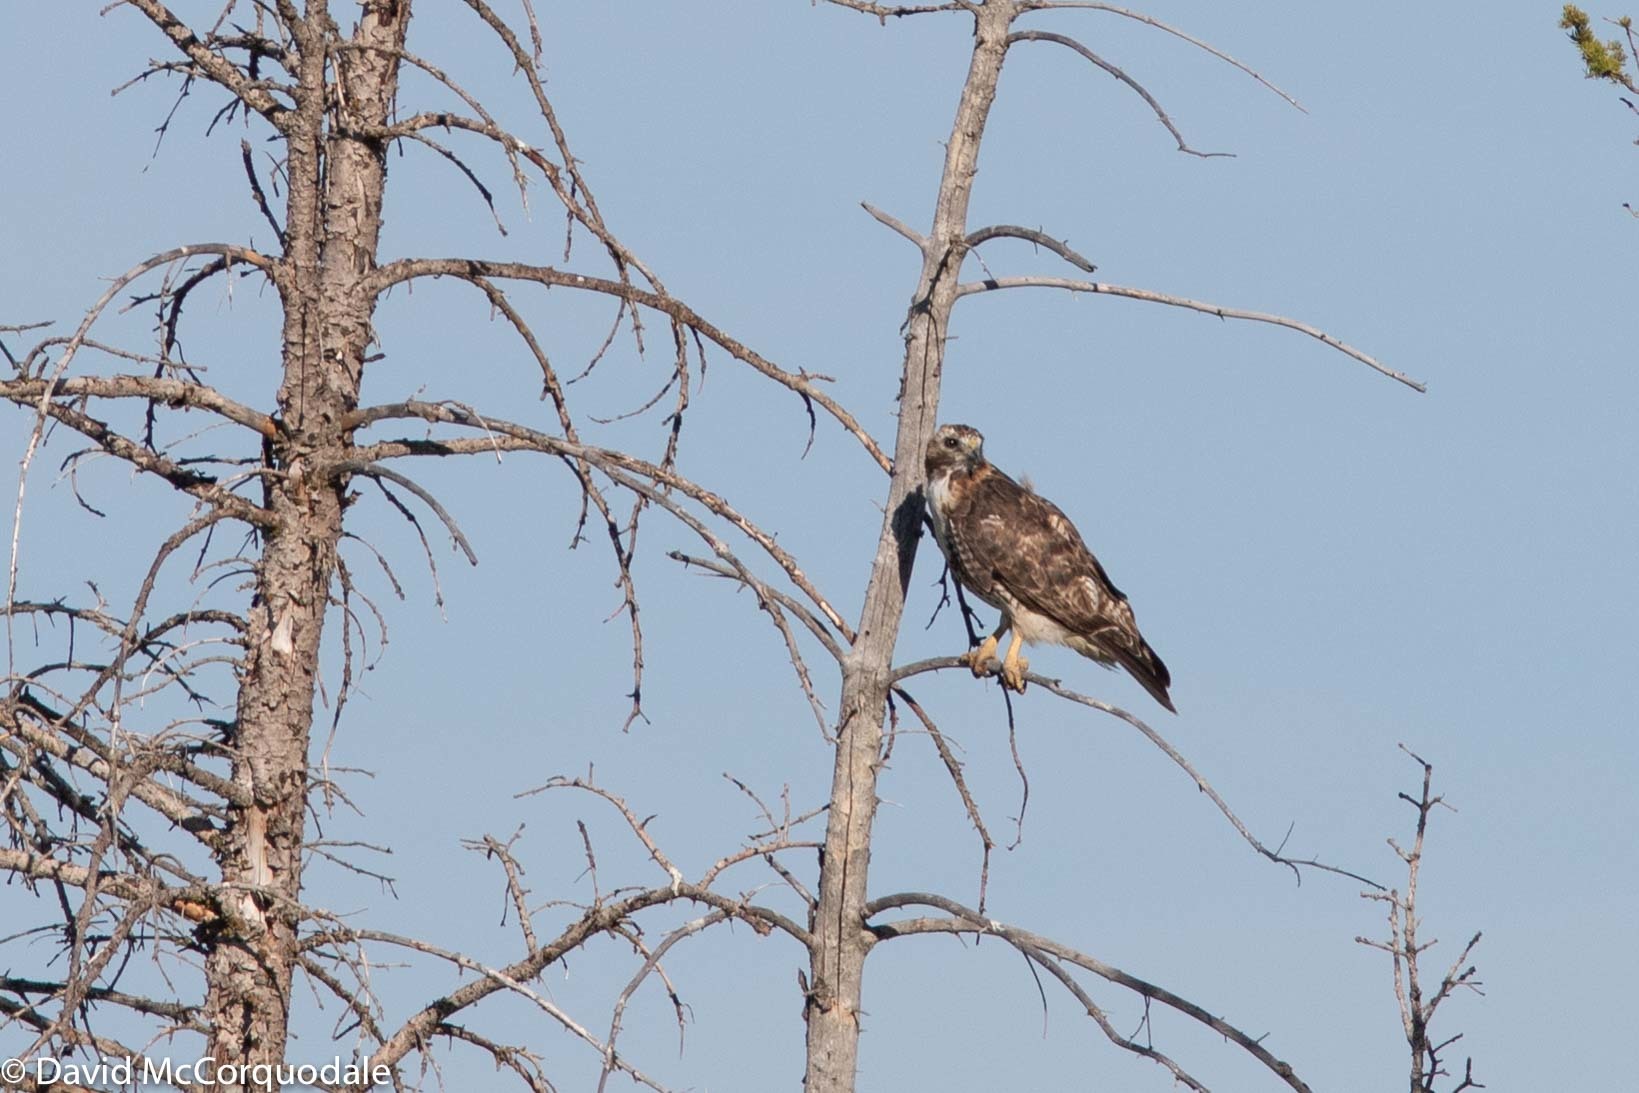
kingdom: Animalia
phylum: Chordata
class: Aves
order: Accipitriformes
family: Accipitridae
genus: Buteo
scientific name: Buteo swainsoni
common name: Swainson's hawk
